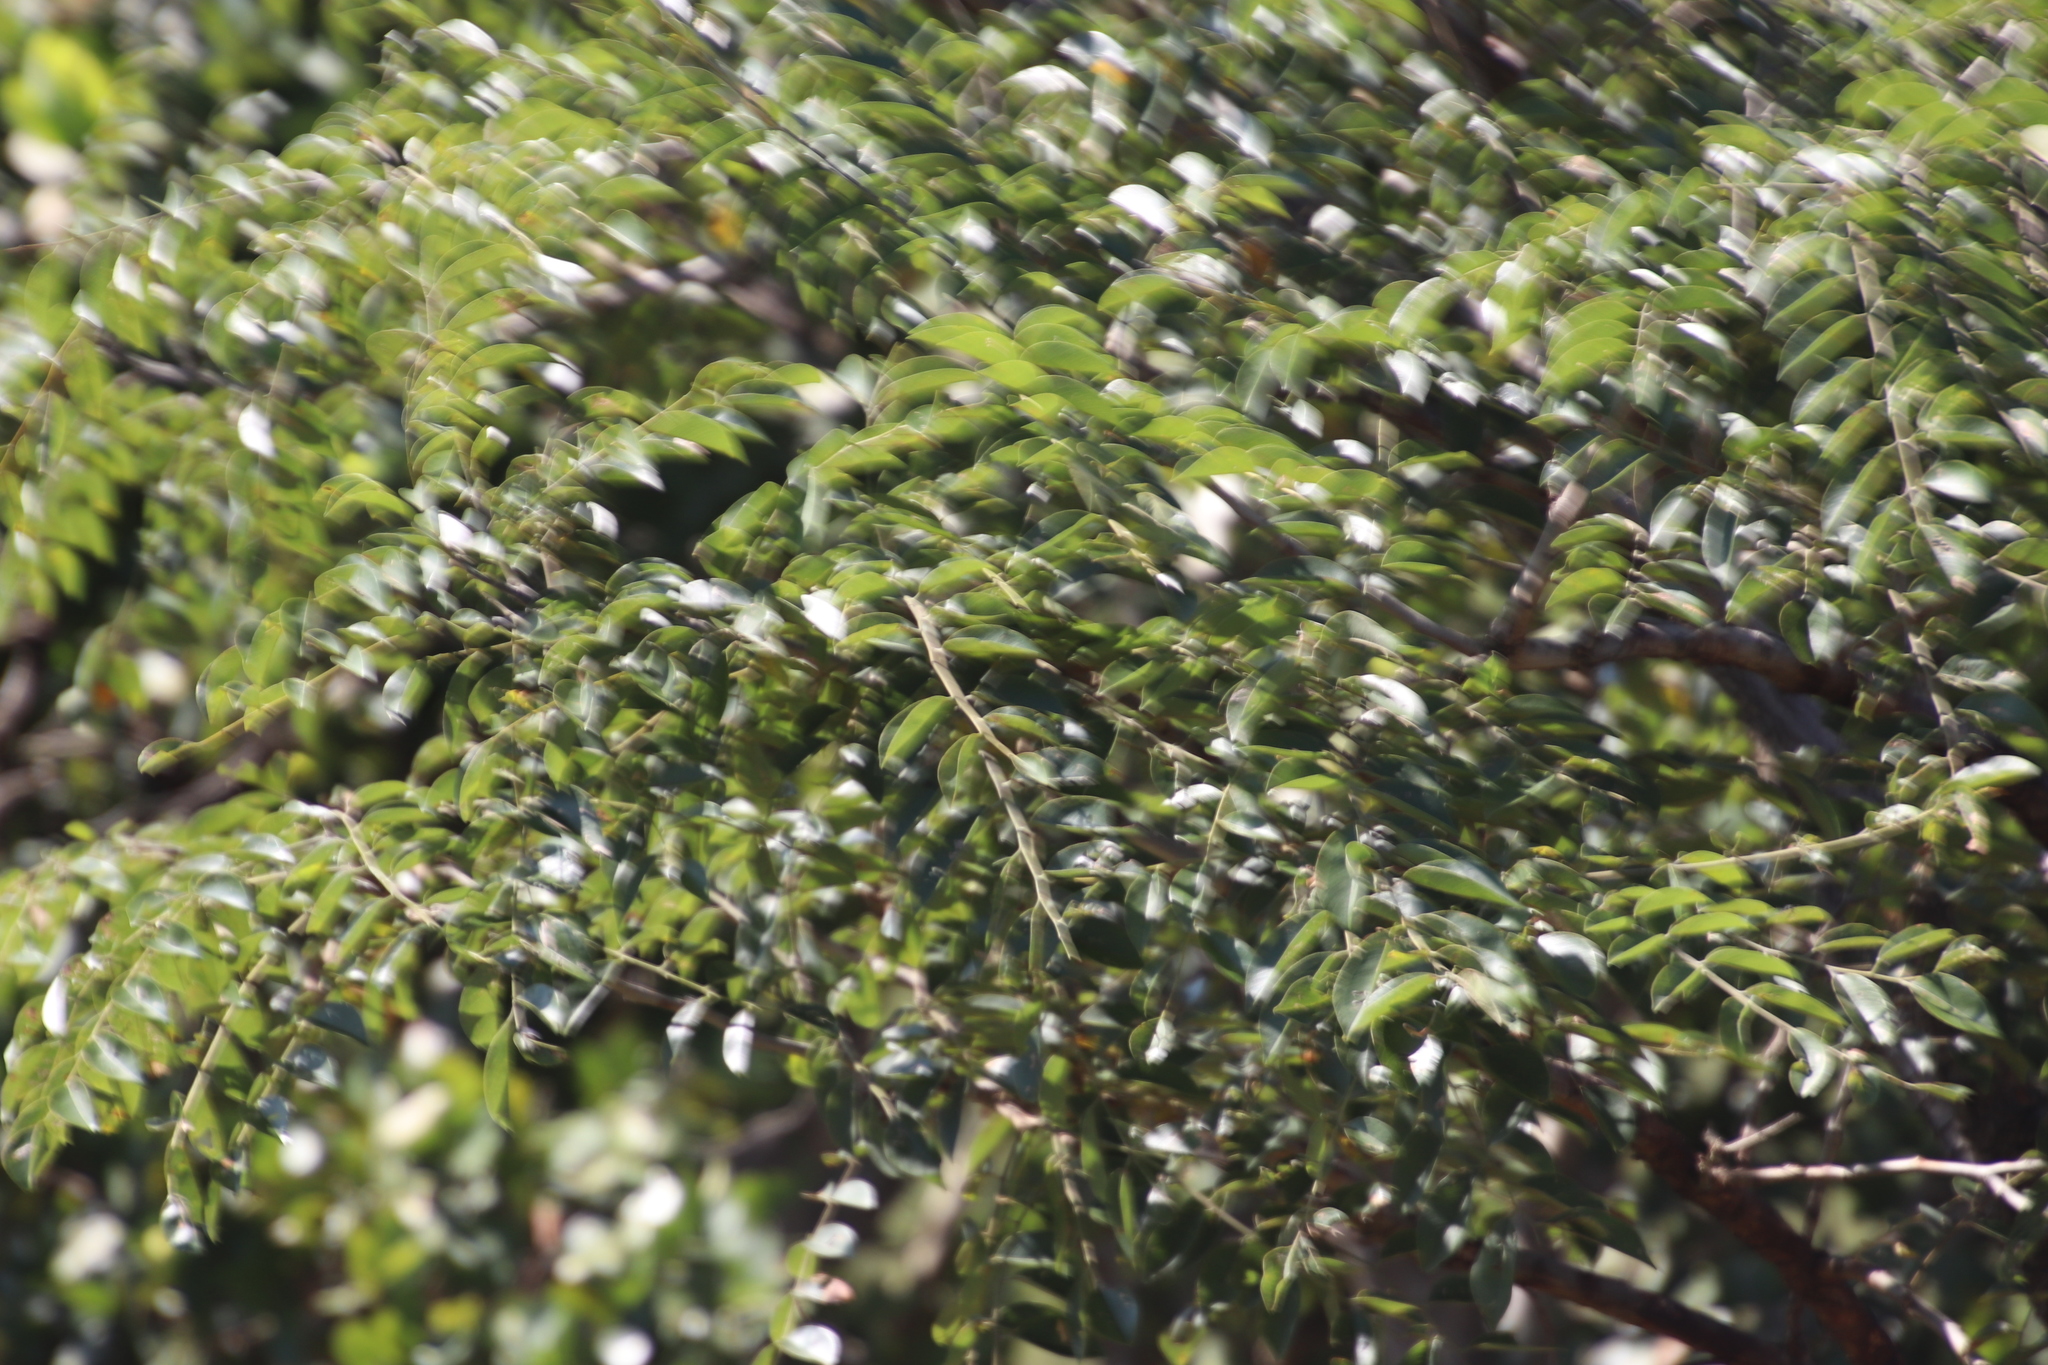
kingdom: Plantae
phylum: Tracheophyta
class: Magnoliopsida
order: Fabales
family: Fabaceae
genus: Pterocarpus
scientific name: Pterocarpus angolensis
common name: Bloodwood tree
